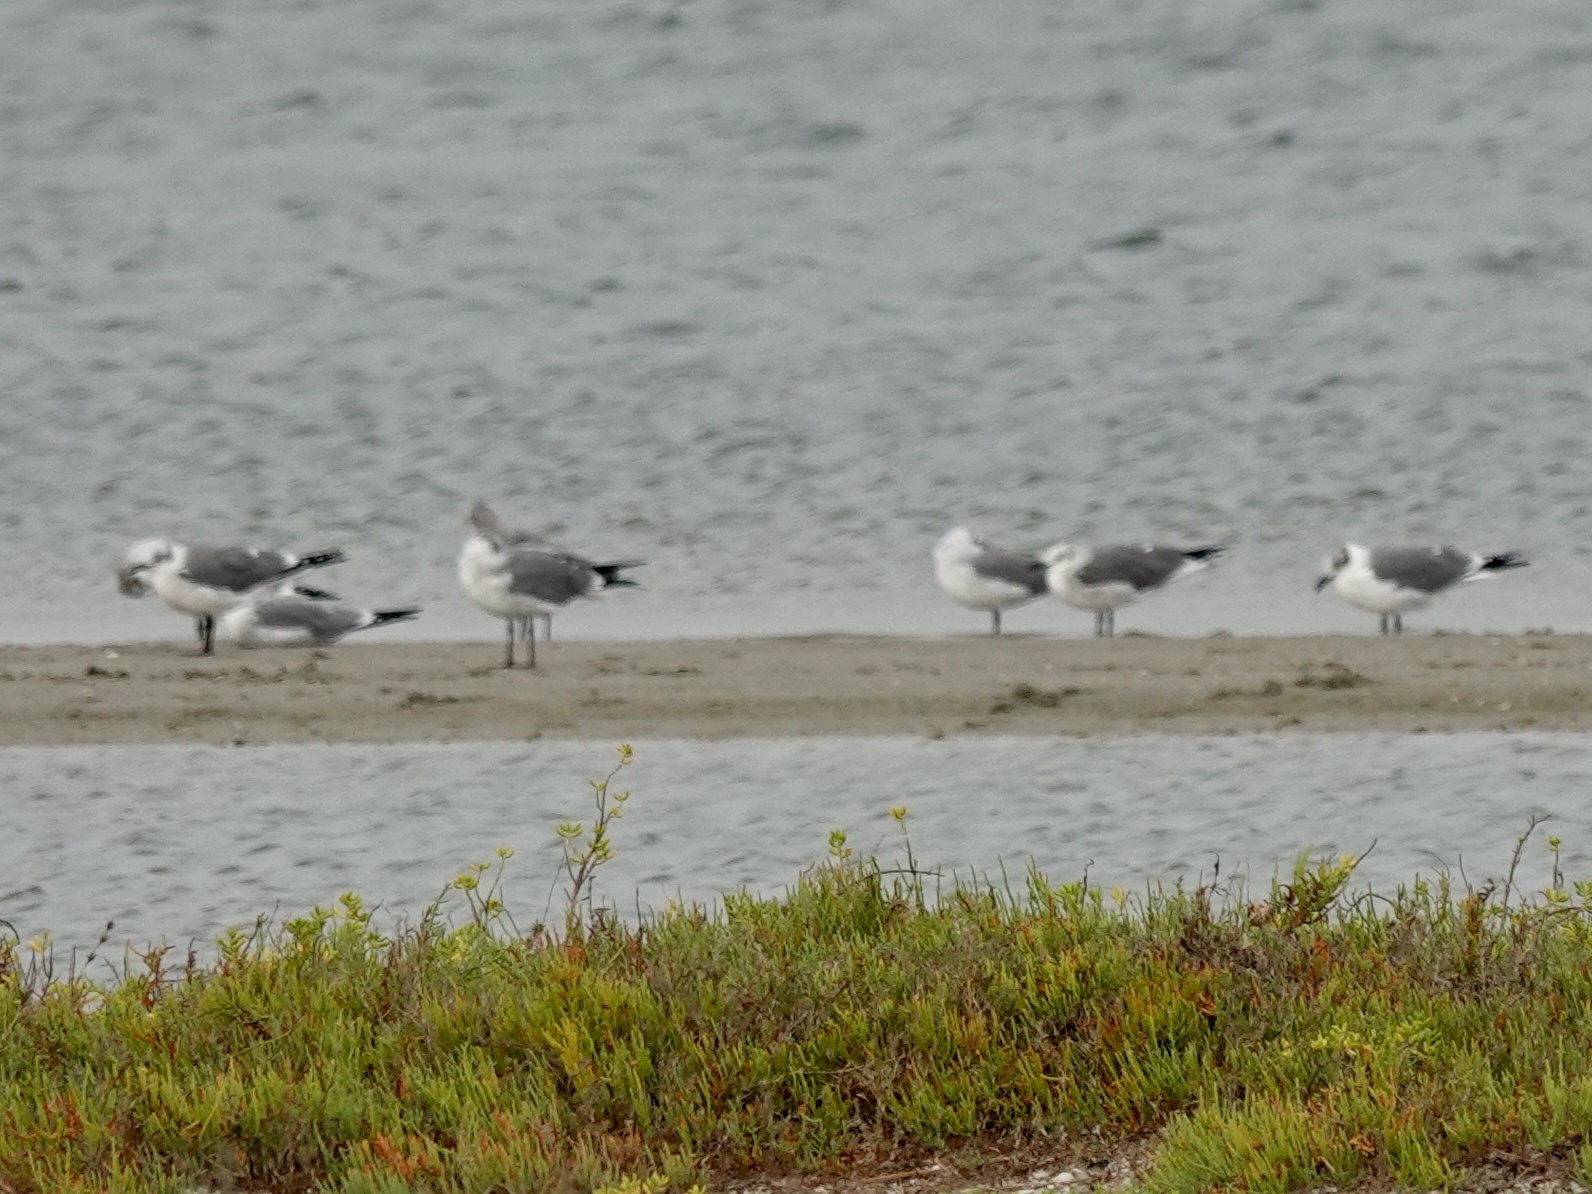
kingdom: Animalia
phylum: Chordata
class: Aves
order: Charadriiformes
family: Laridae
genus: Leucophaeus
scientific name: Leucophaeus atricilla
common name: Laughing gull
